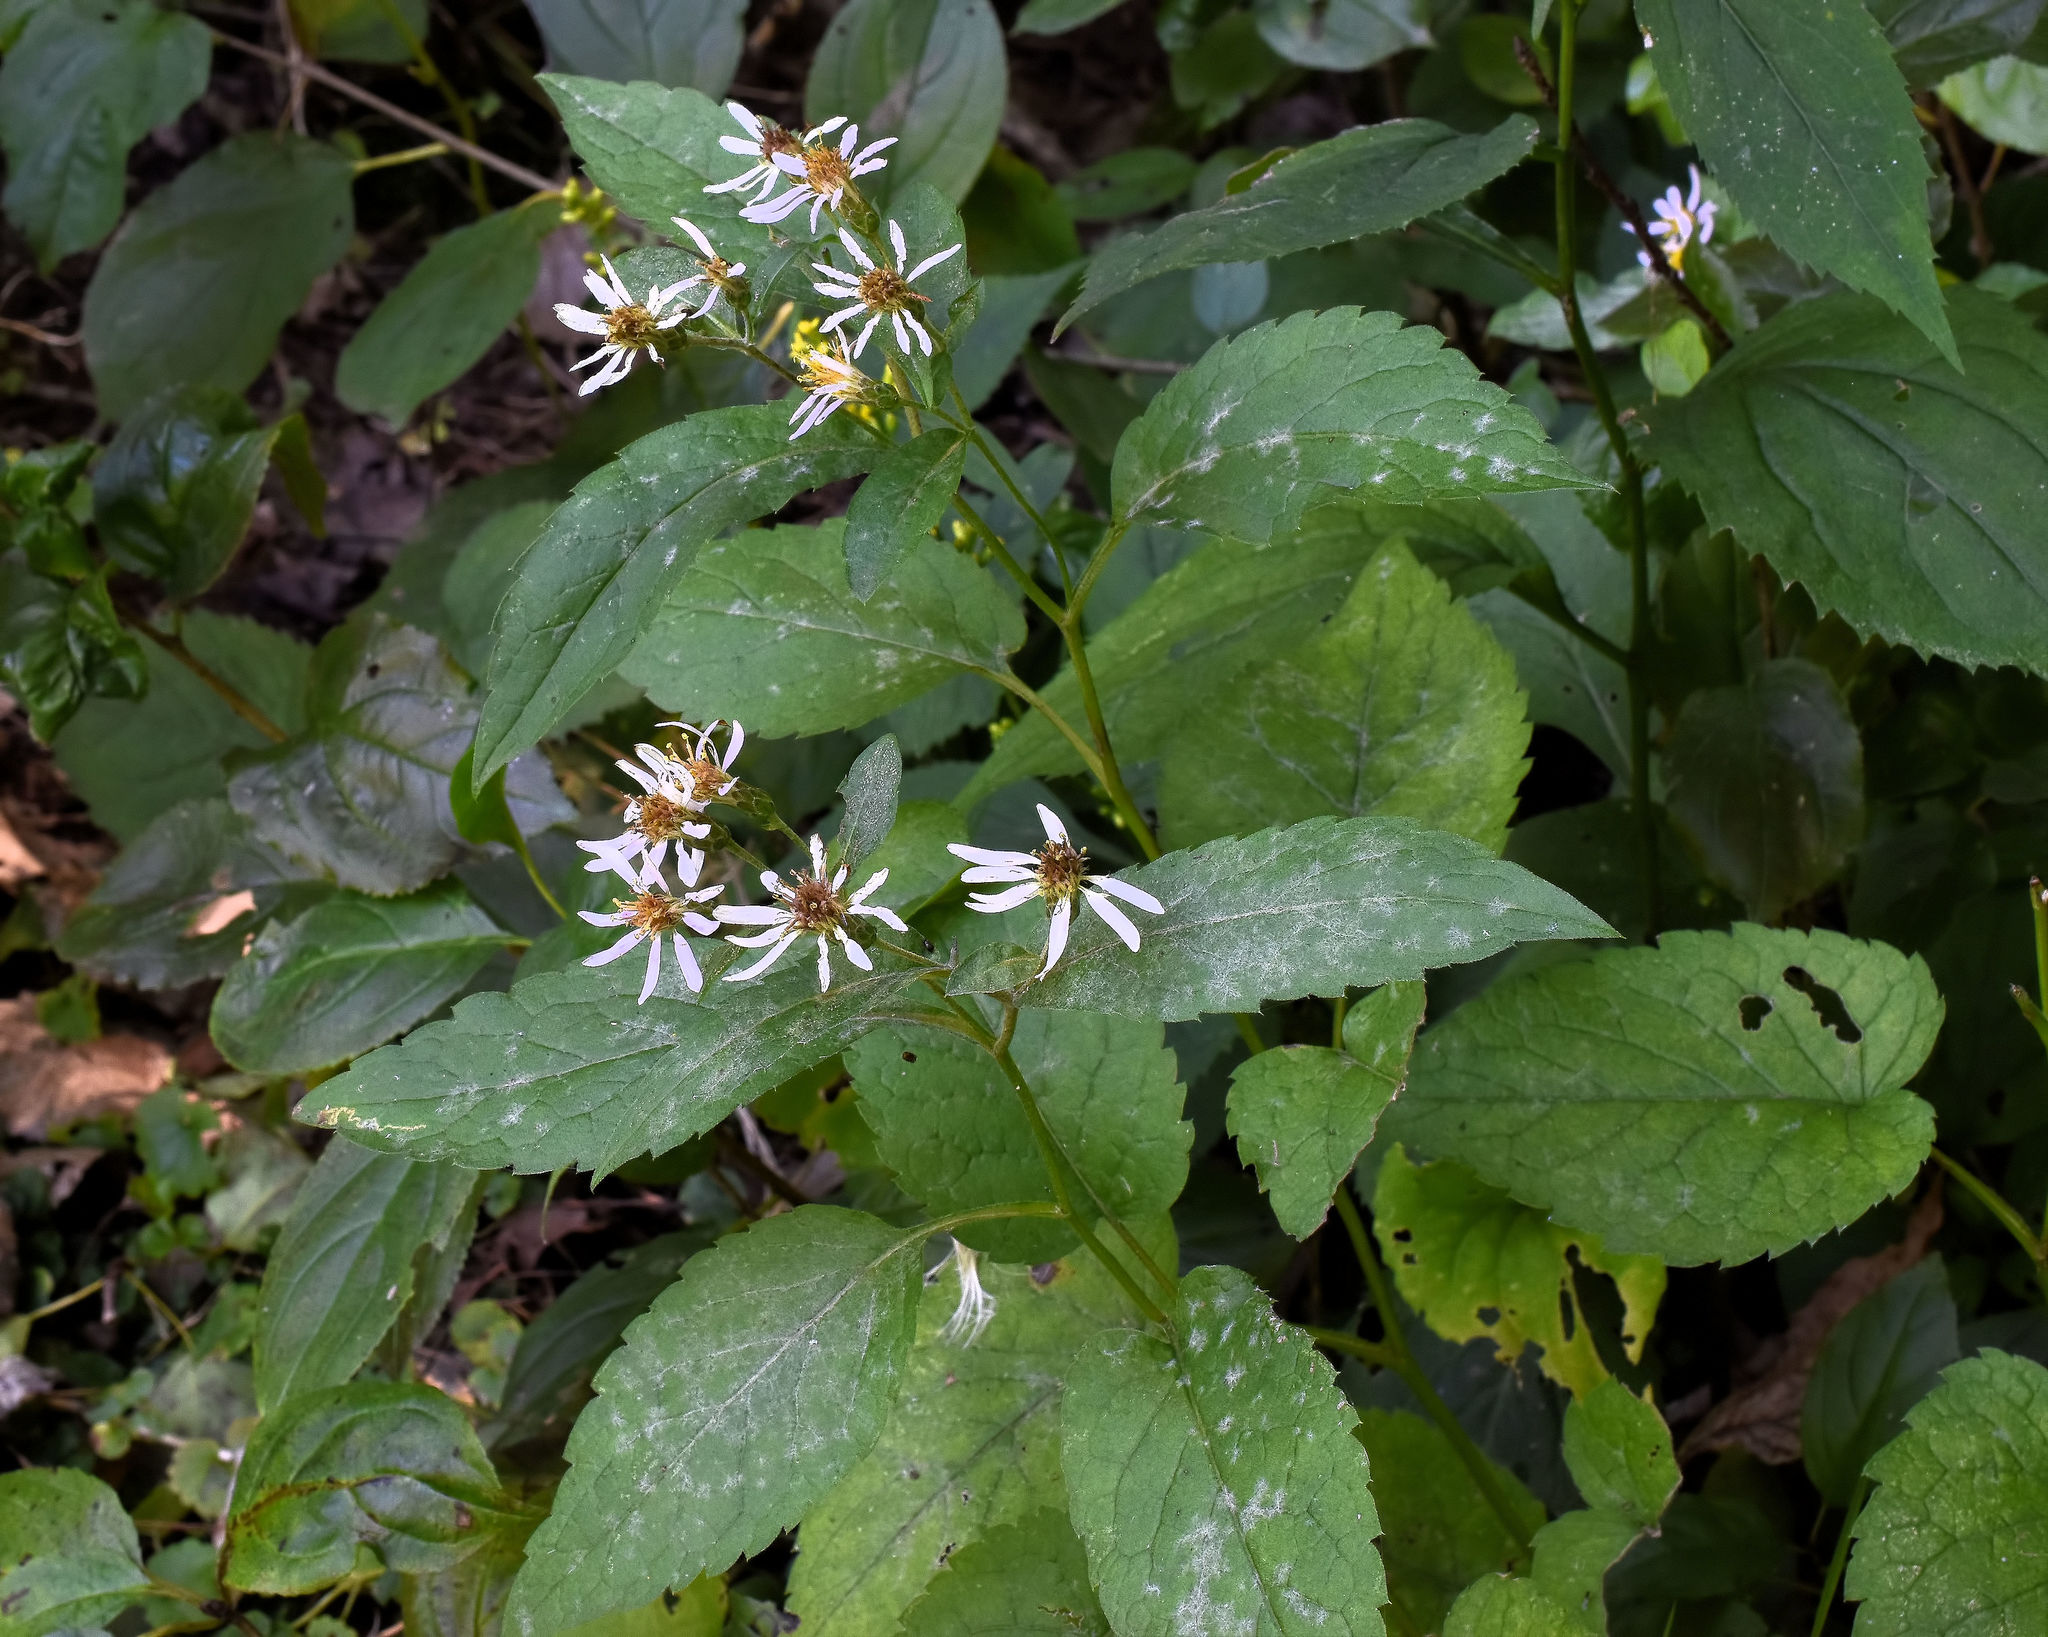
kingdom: Plantae
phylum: Tracheophyta
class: Magnoliopsida
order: Asterales
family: Asteraceae
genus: Eurybia
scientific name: Eurybia furcata
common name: Forked aster
